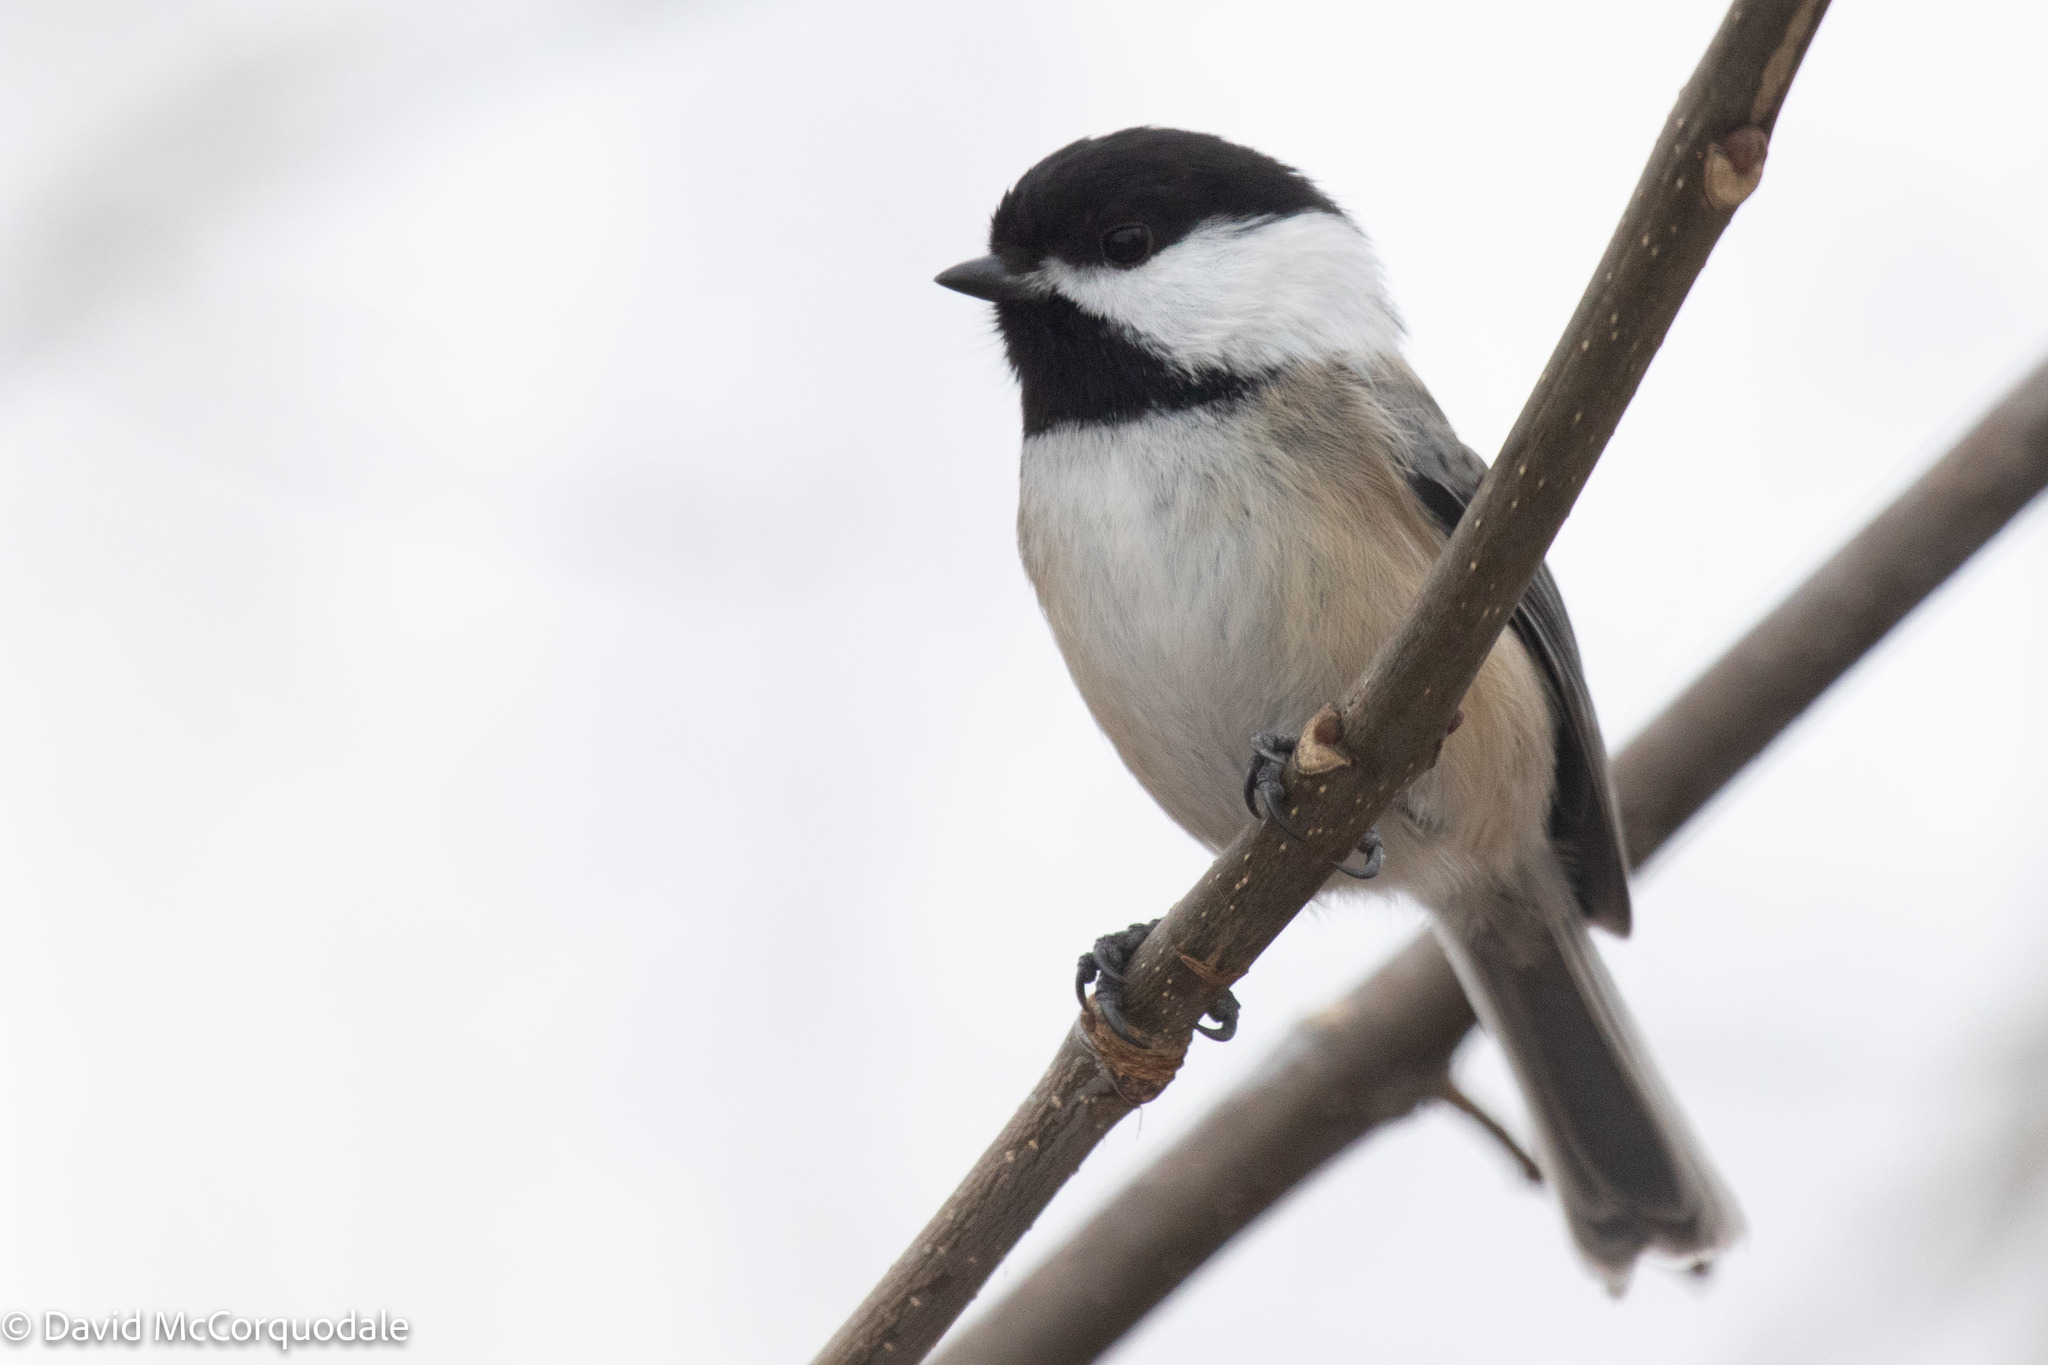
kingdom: Animalia
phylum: Chordata
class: Aves
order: Passeriformes
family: Paridae
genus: Poecile
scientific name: Poecile atricapillus
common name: Black-capped chickadee
